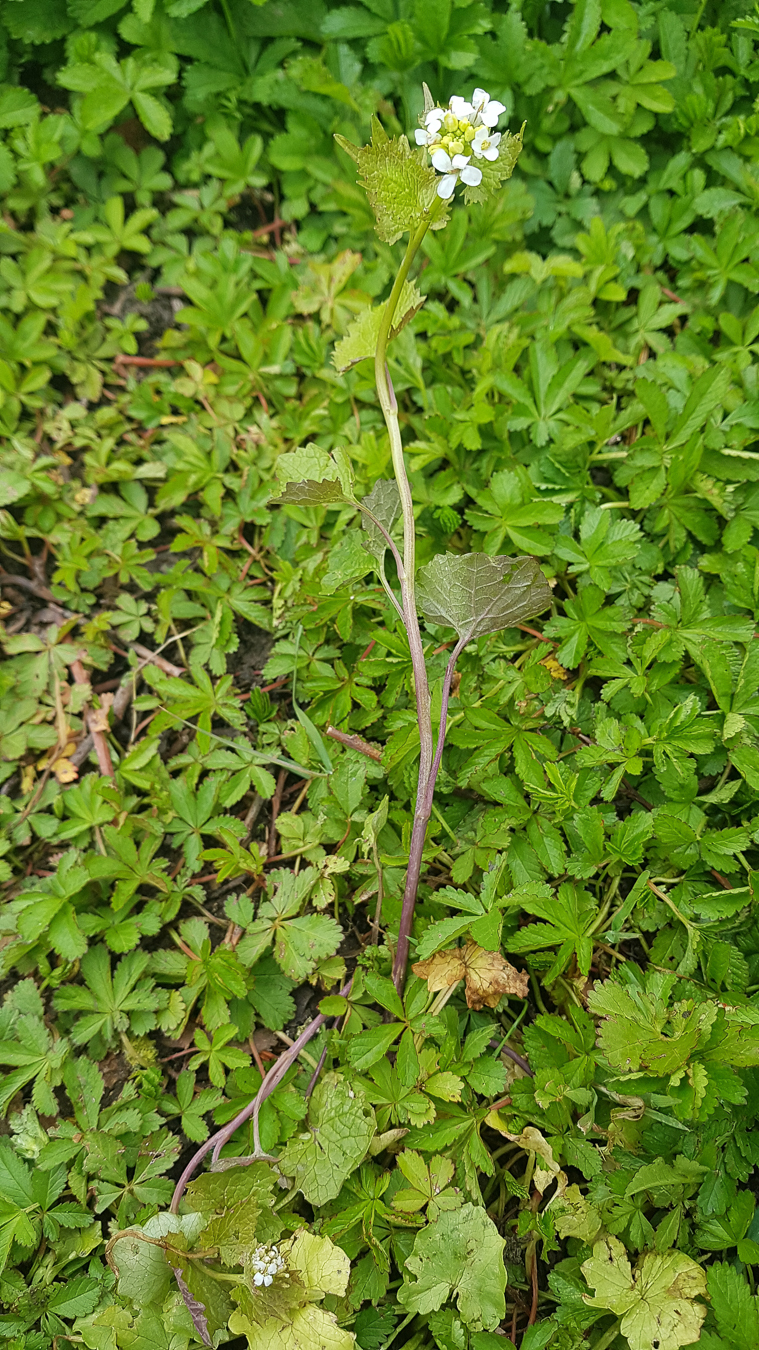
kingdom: Plantae
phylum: Tracheophyta
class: Magnoliopsida
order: Brassicales
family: Brassicaceae
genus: Alliaria
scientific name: Alliaria petiolata
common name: Garlic mustard
